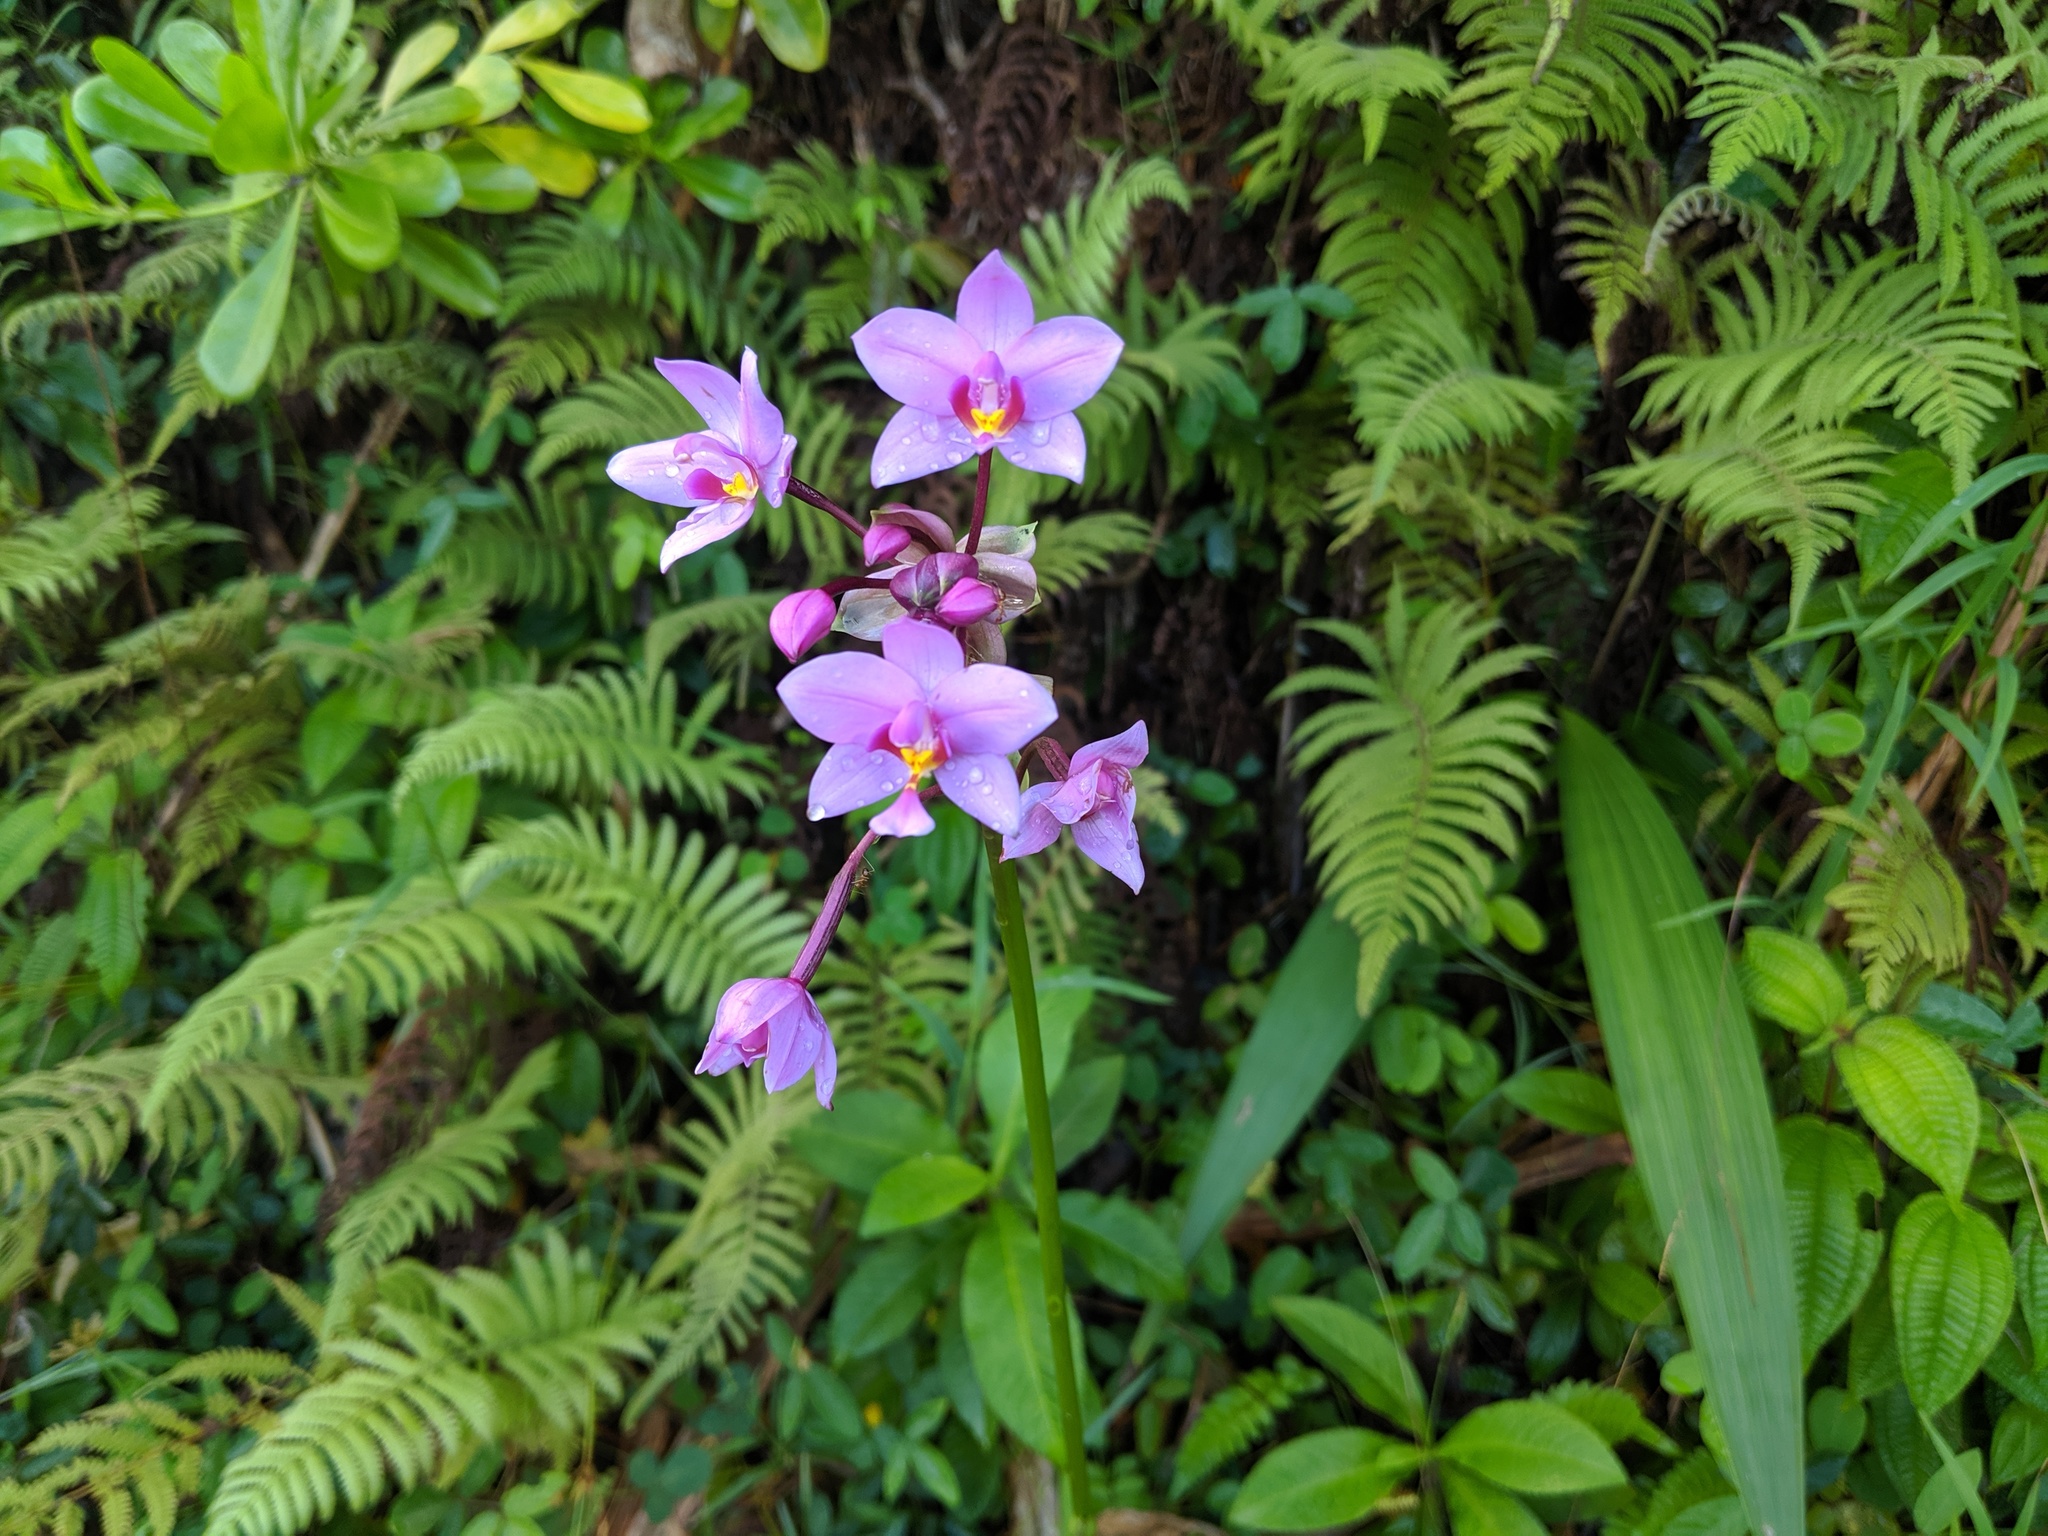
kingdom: Plantae
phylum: Tracheophyta
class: Liliopsida
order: Asparagales
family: Orchidaceae
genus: Spathoglottis
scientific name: Spathoglottis plicata
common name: Philippine ground orchid
